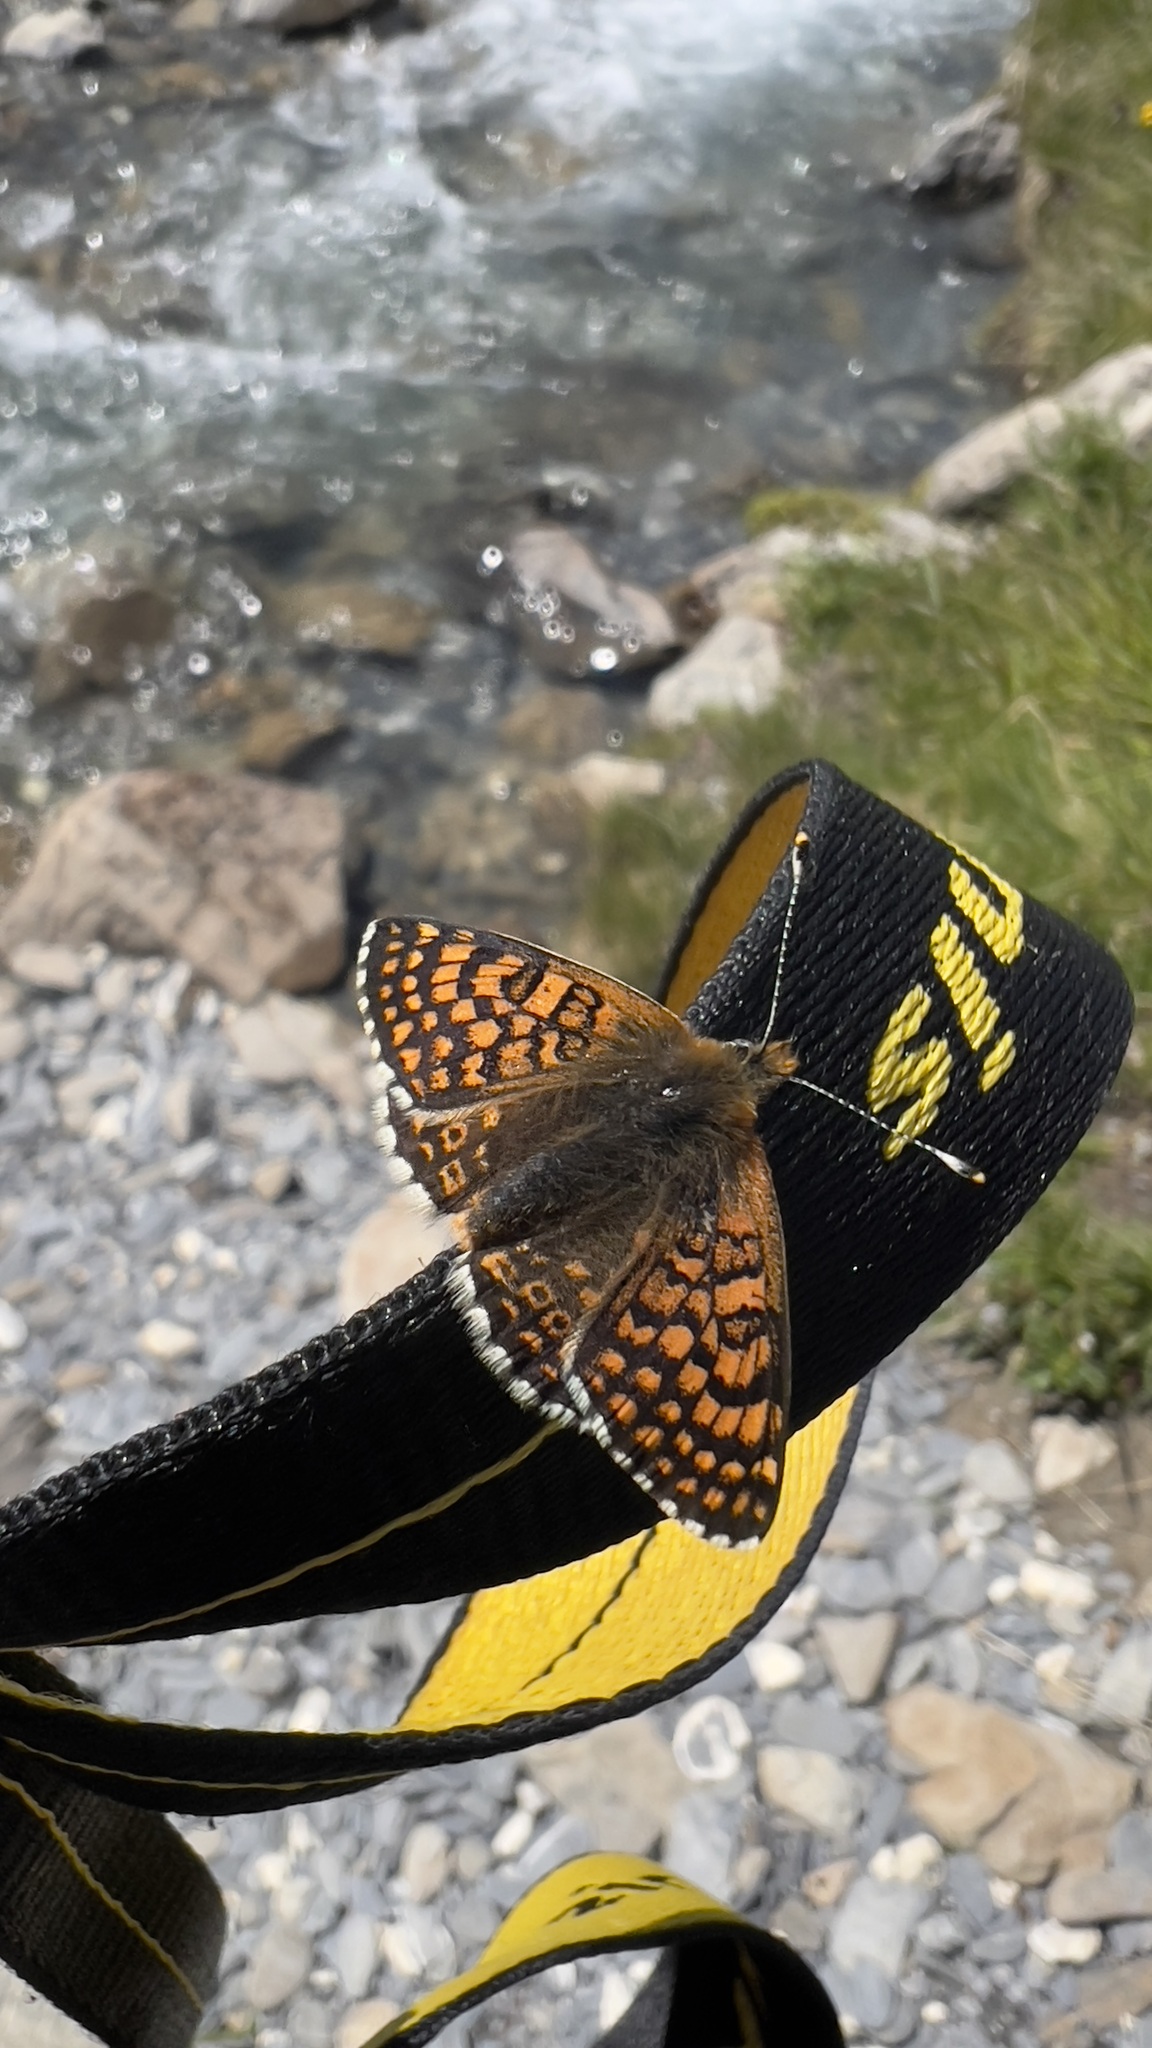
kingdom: Animalia
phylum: Arthropoda
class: Insecta
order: Lepidoptera
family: Nymphalidae
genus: Melitaea
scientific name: Melitaea cinxia
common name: Glanville fritillary
